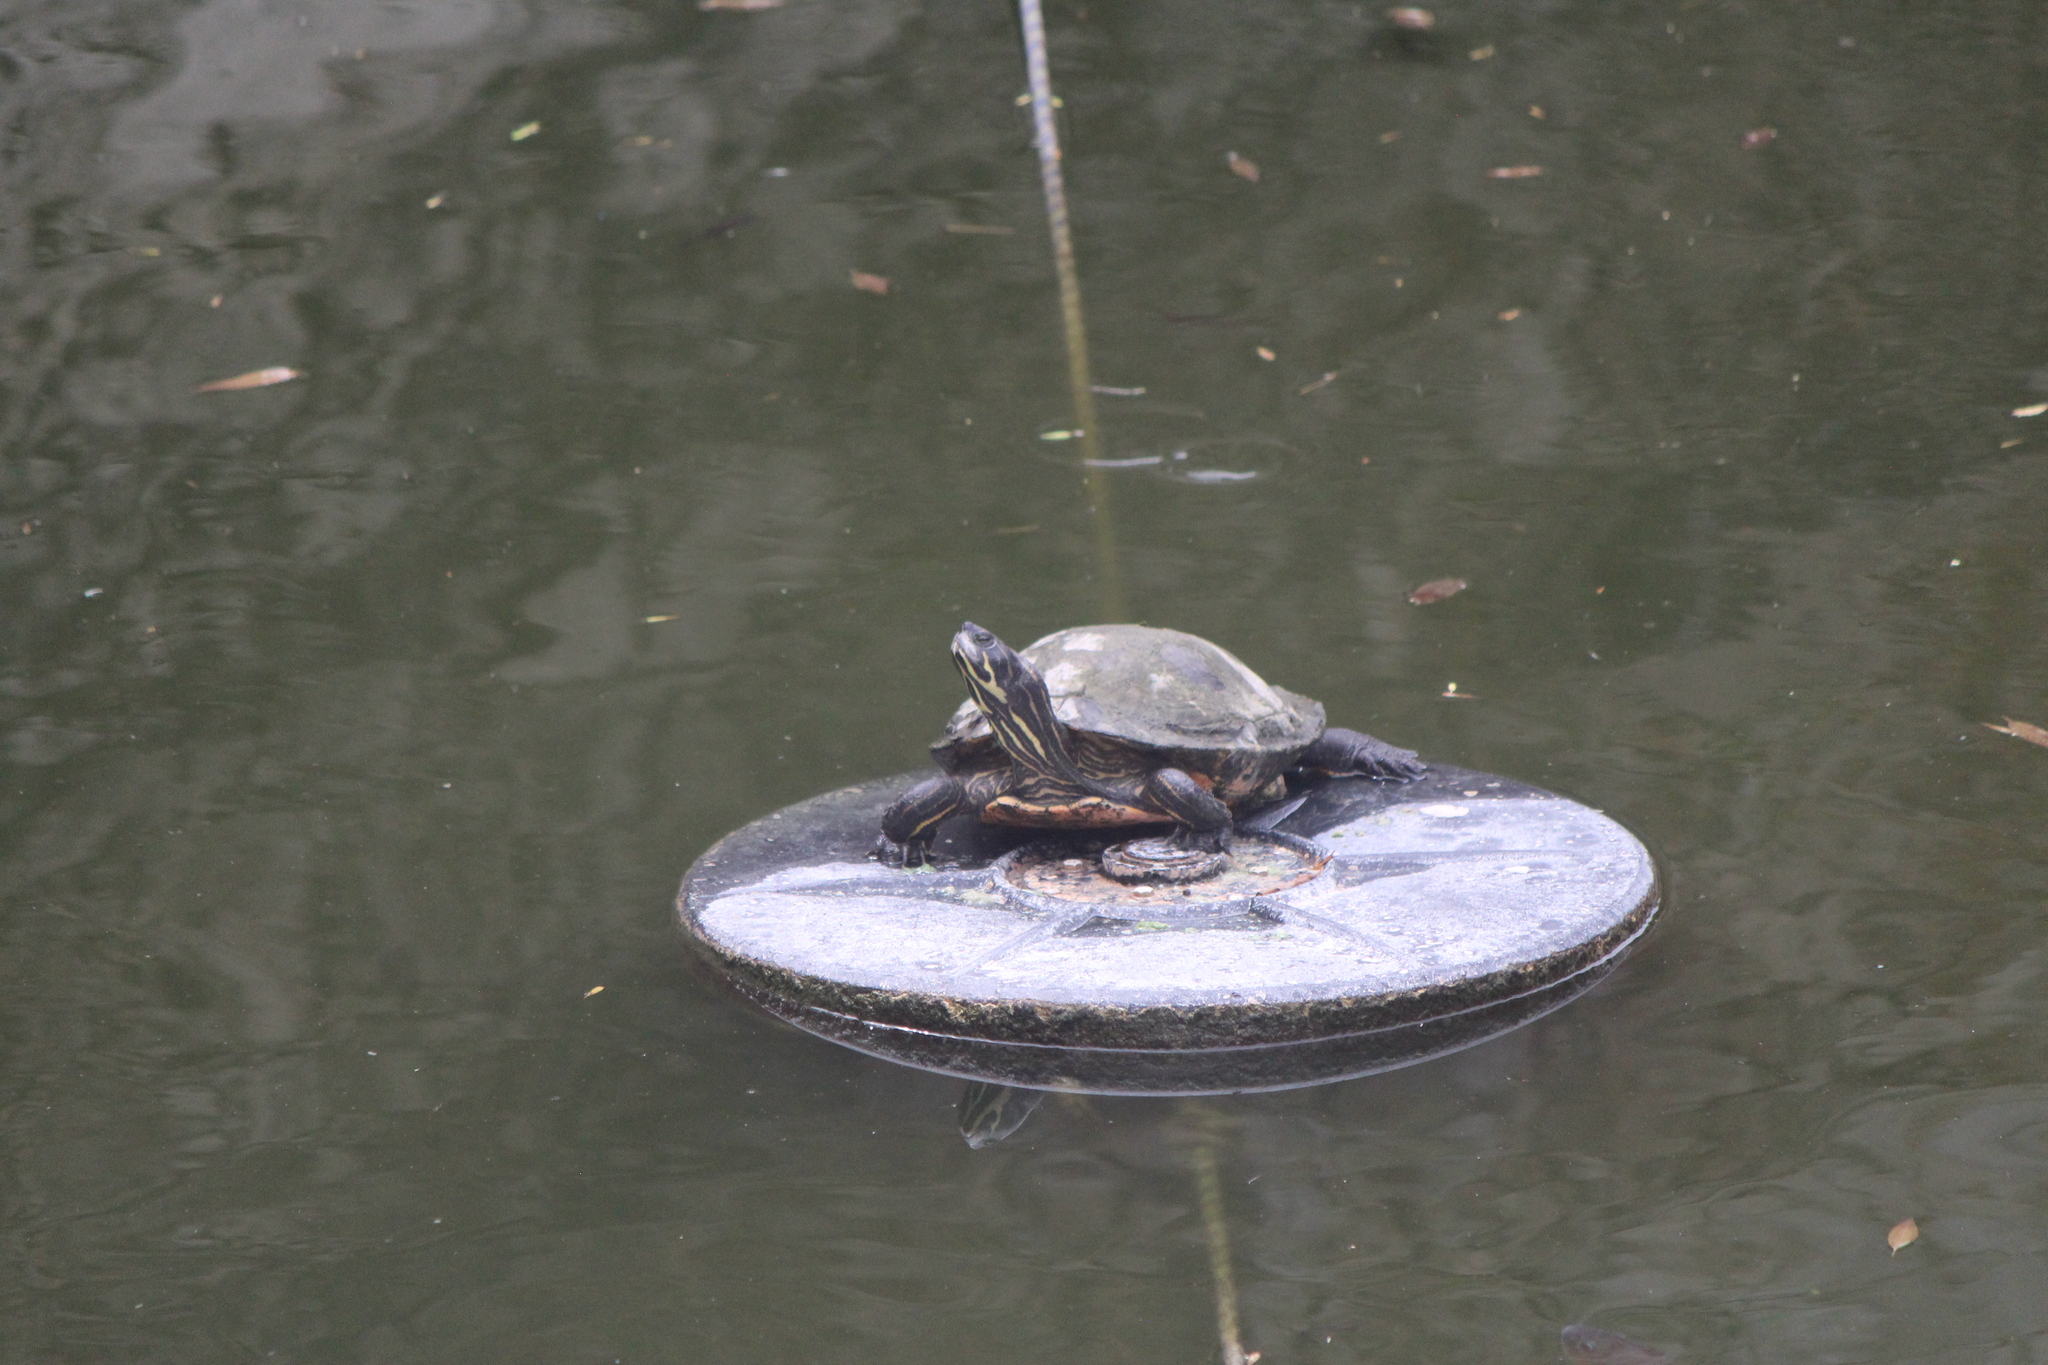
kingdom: Animalia
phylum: Chordata
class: Testudines
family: Emydidae
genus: Pseudemys
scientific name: Pseudemys concinna
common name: Eastern river cooter
